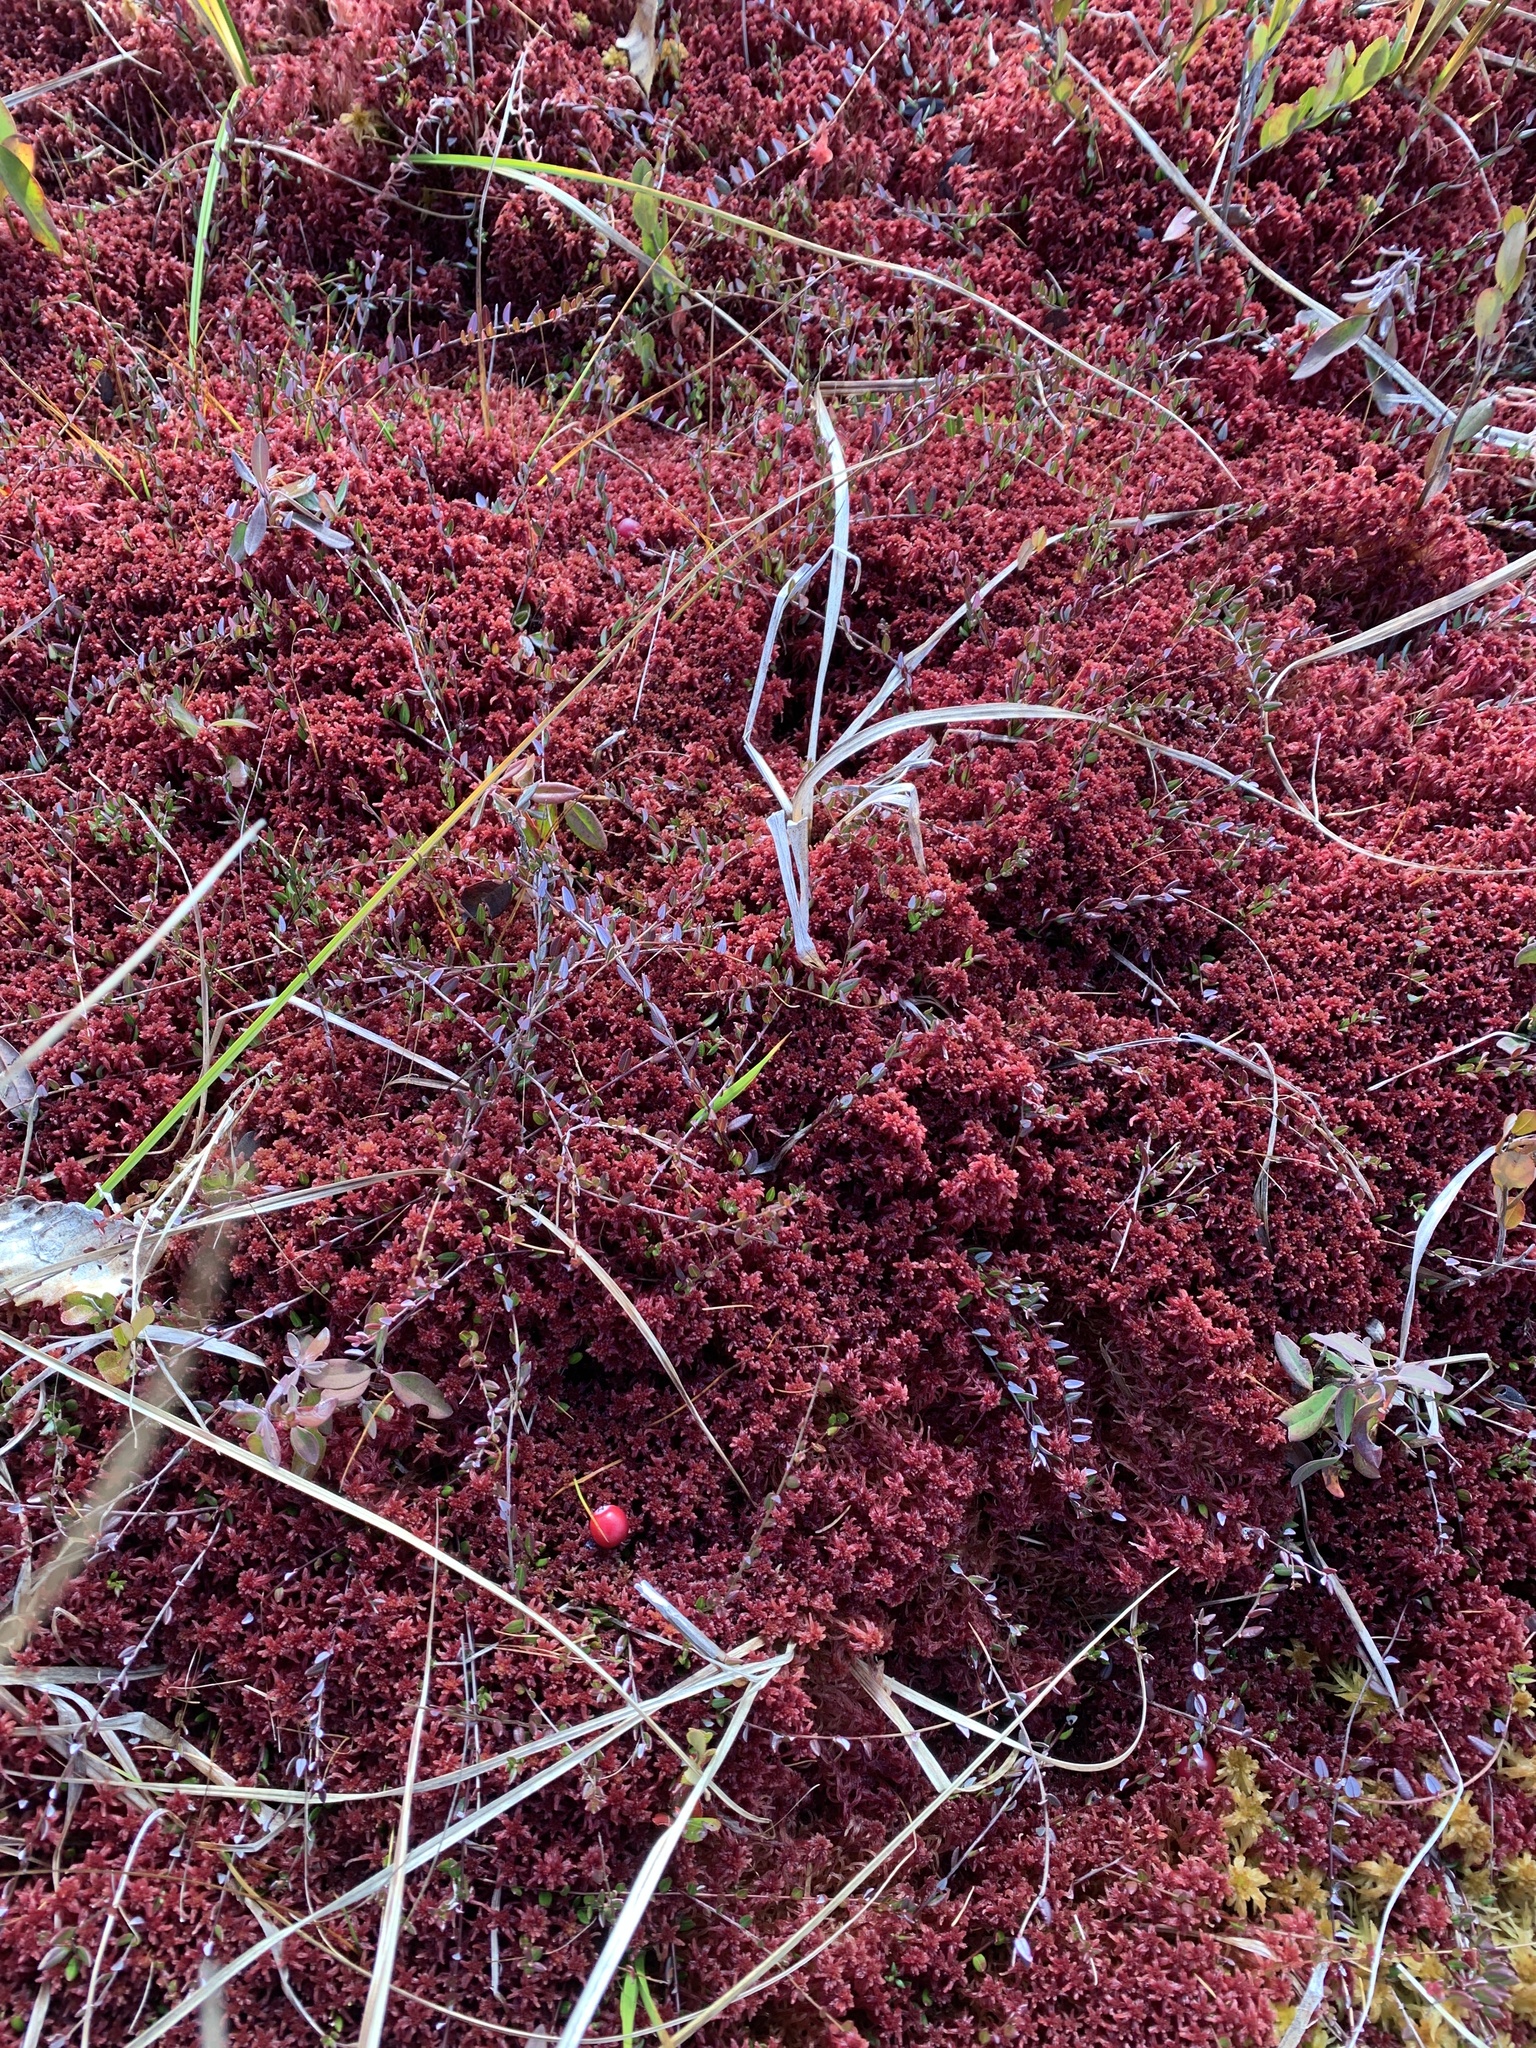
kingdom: Plantae
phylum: Bryophyta
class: Sphagnopsida
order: Sphagnales
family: Sphagnaceae
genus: Sphagnum
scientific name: Sphagnum rubellum
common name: Red peat moss
